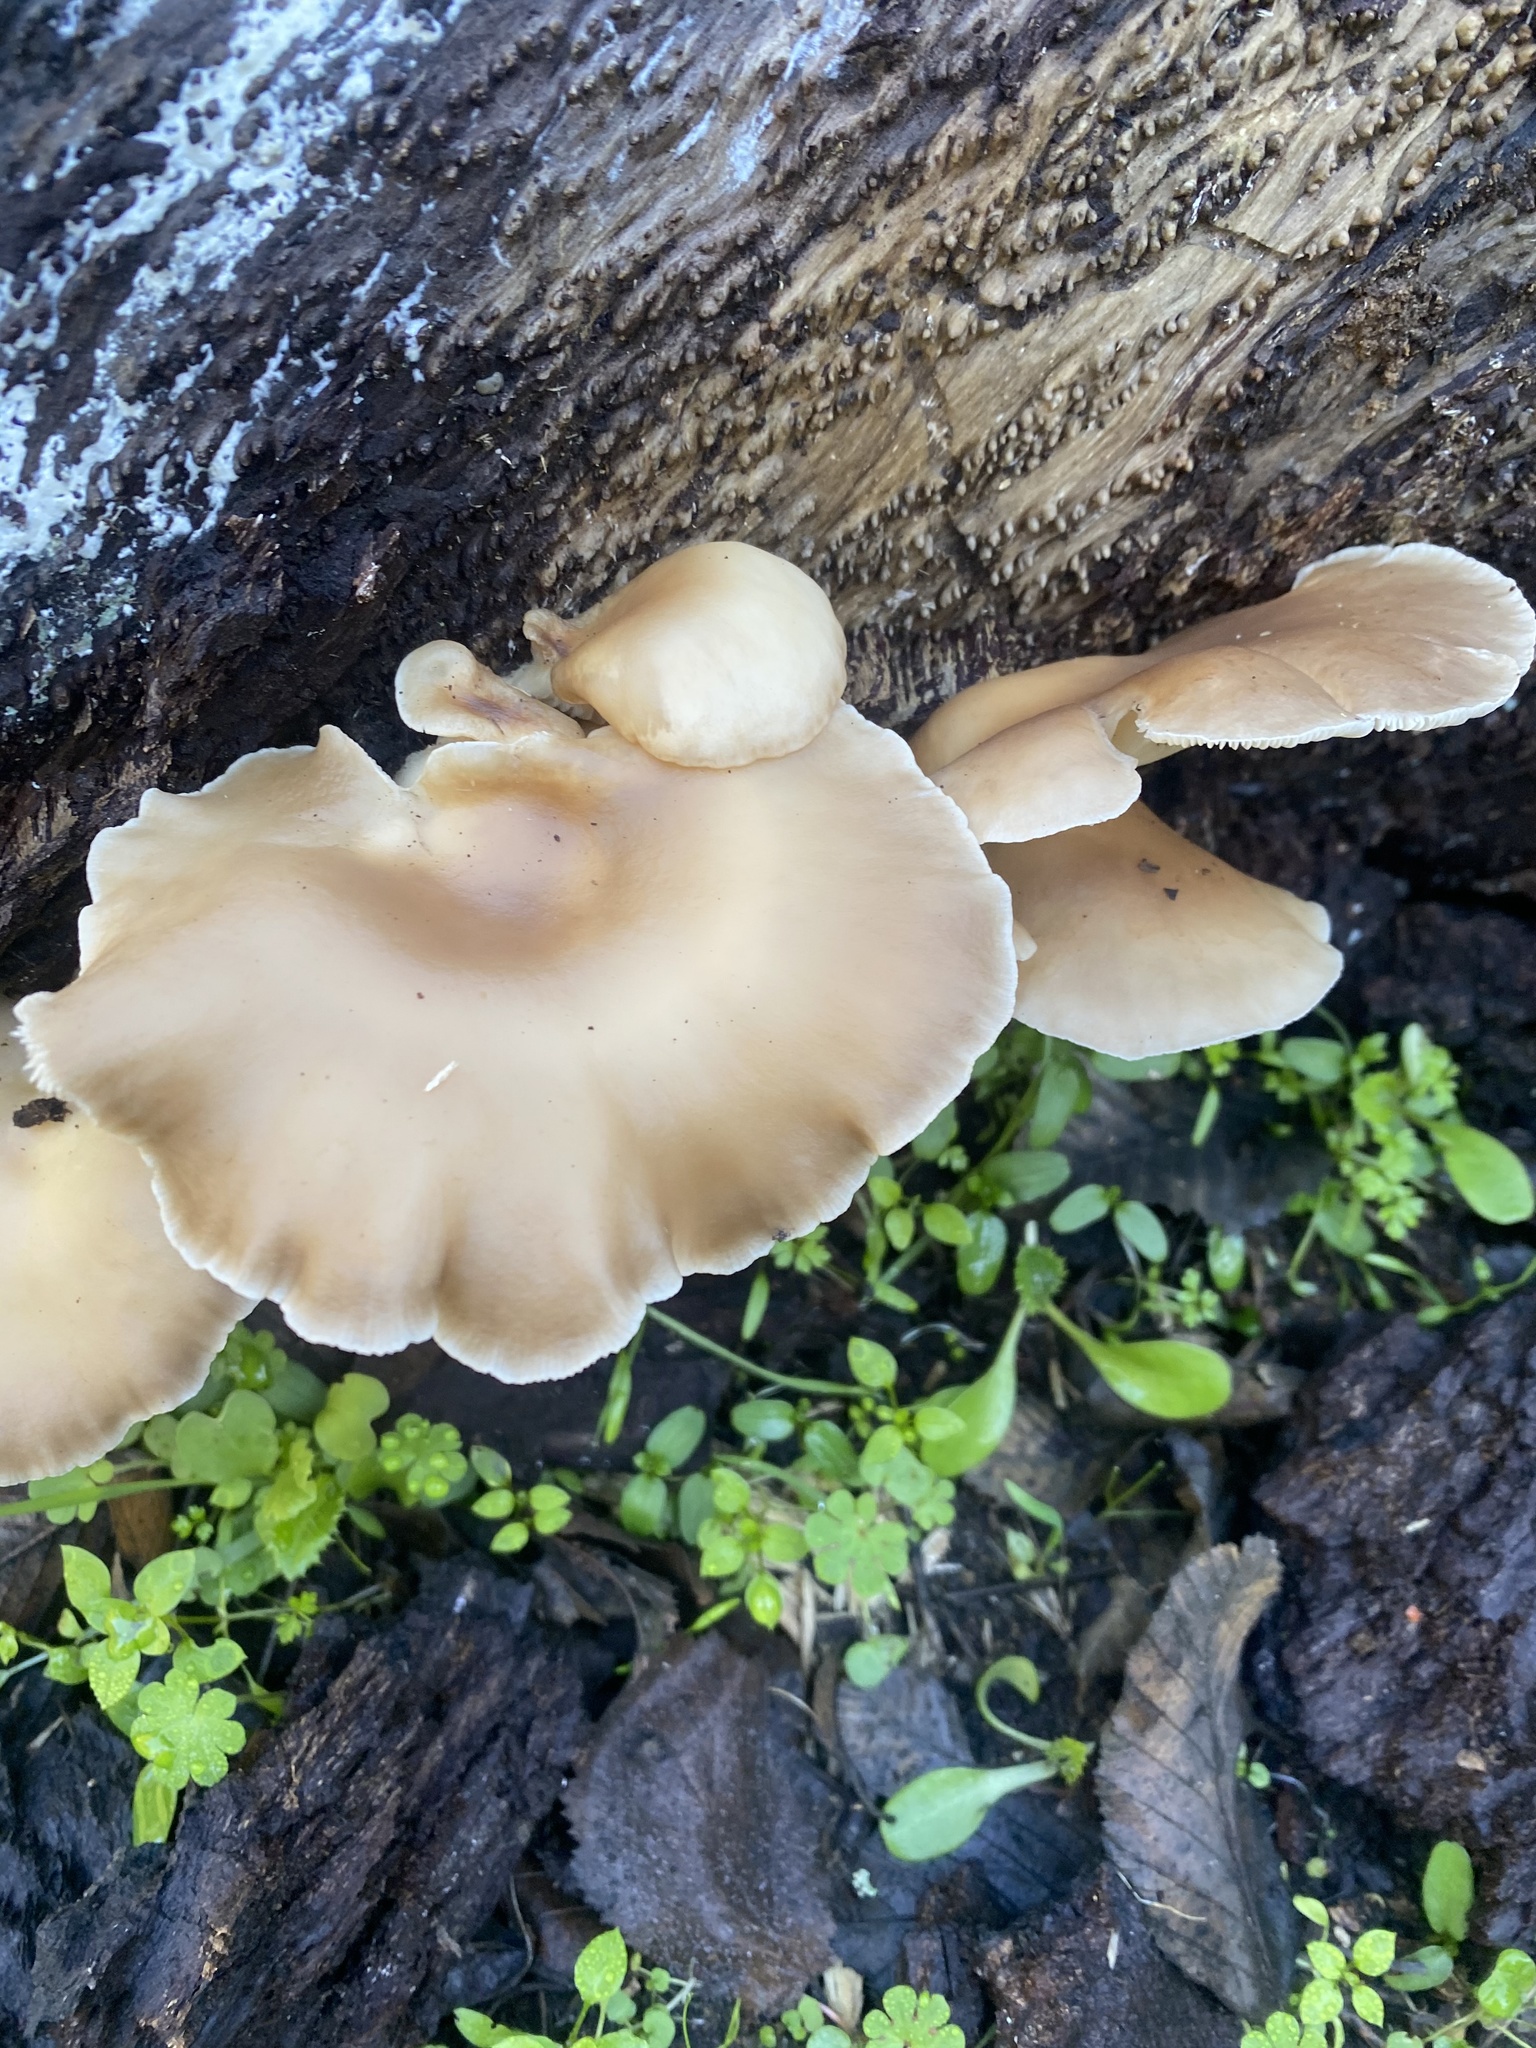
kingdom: Fungi
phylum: Basidiomycota
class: Agaricomycetes
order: Agaricales
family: Pleurotaceae
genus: Pleurotus
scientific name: Pleurotus ostreatus
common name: Oyster mushroom
